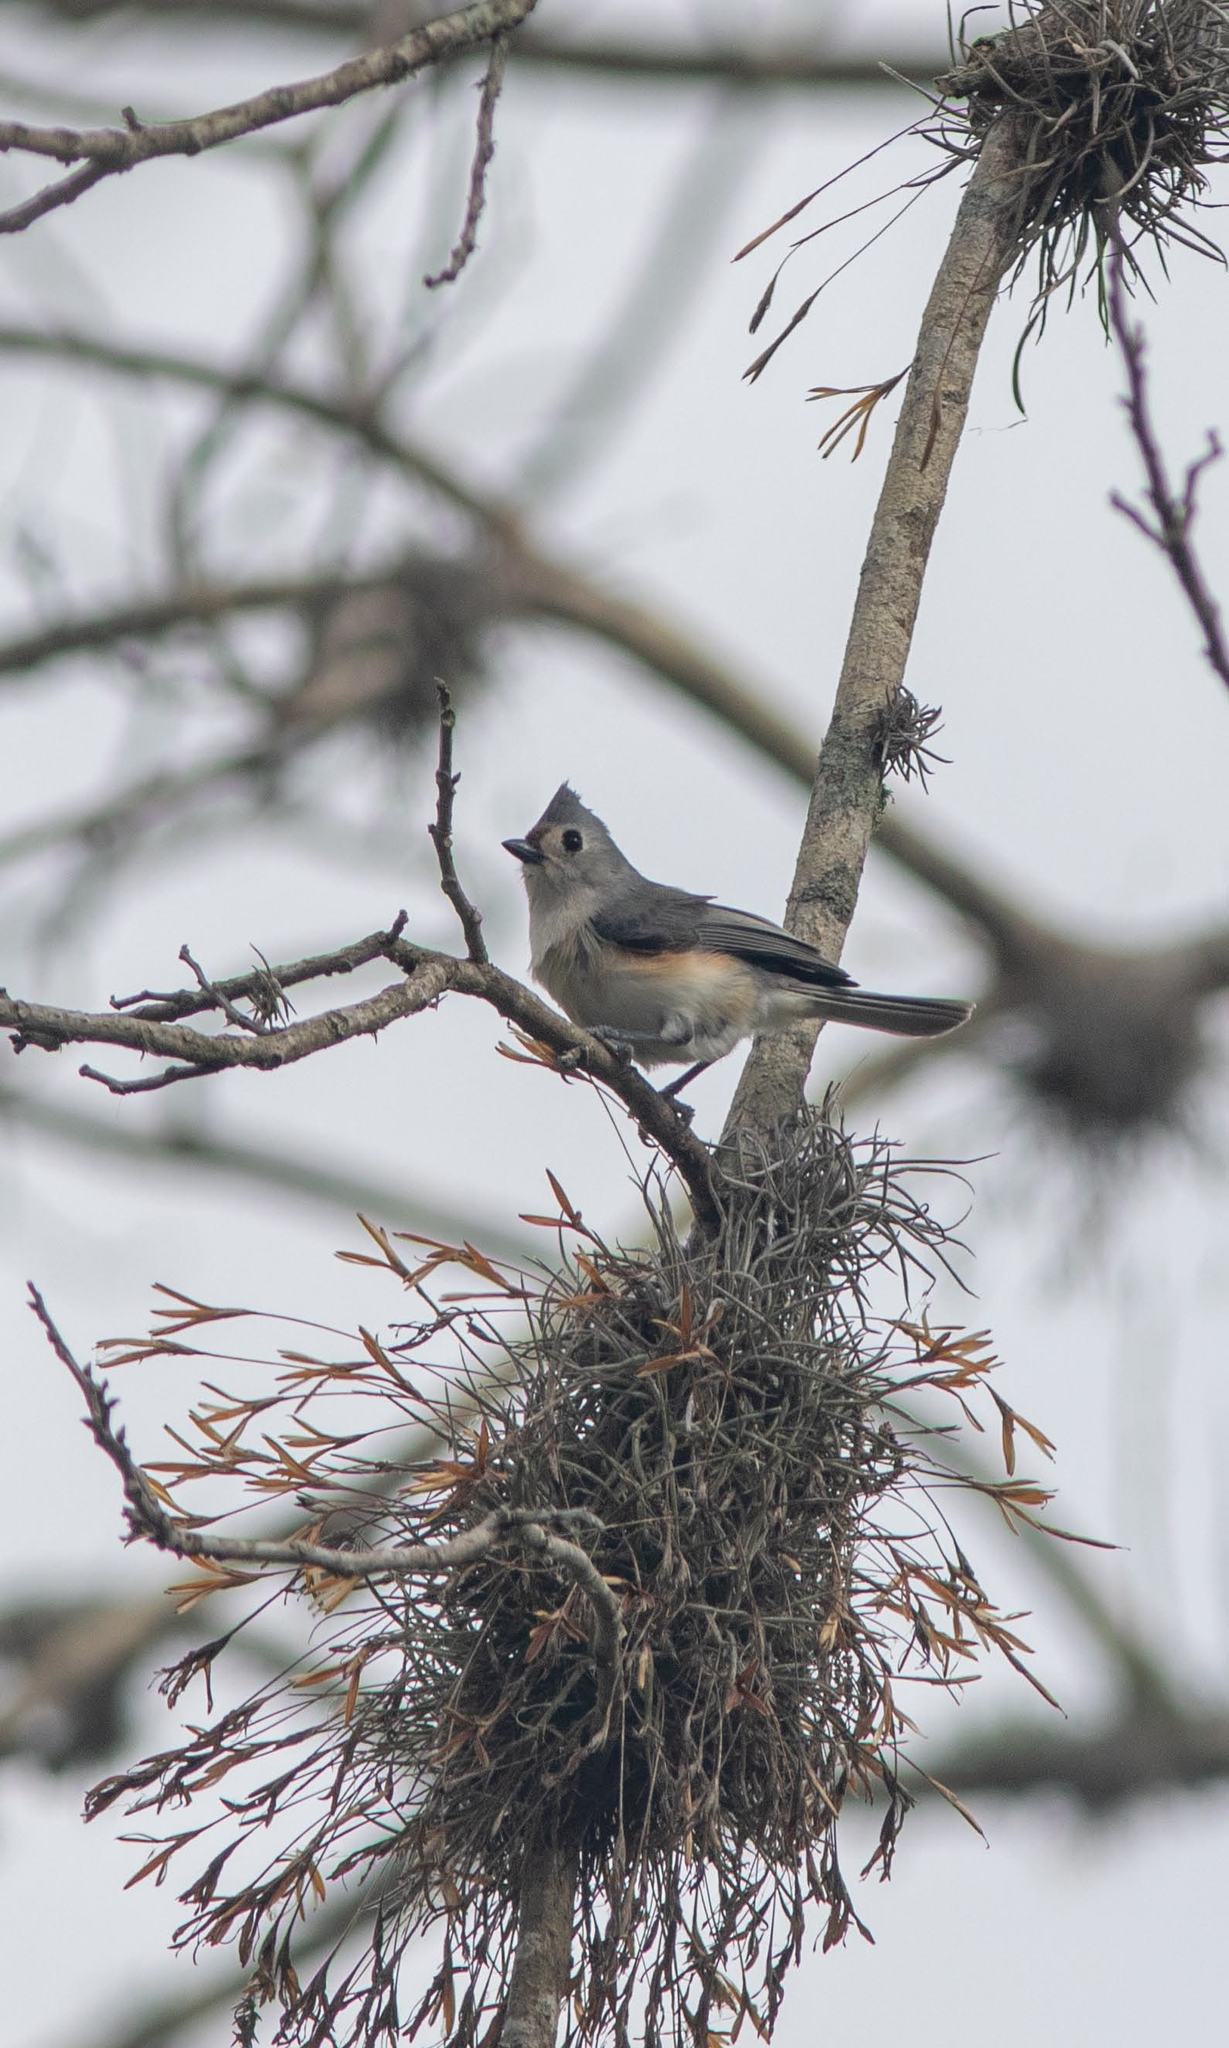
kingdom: Animalia
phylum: Chordata
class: Aves
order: Passeriformes
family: Paridae
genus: Baeolophus
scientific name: Baeolophus bicolor
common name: Tufted titmouse
